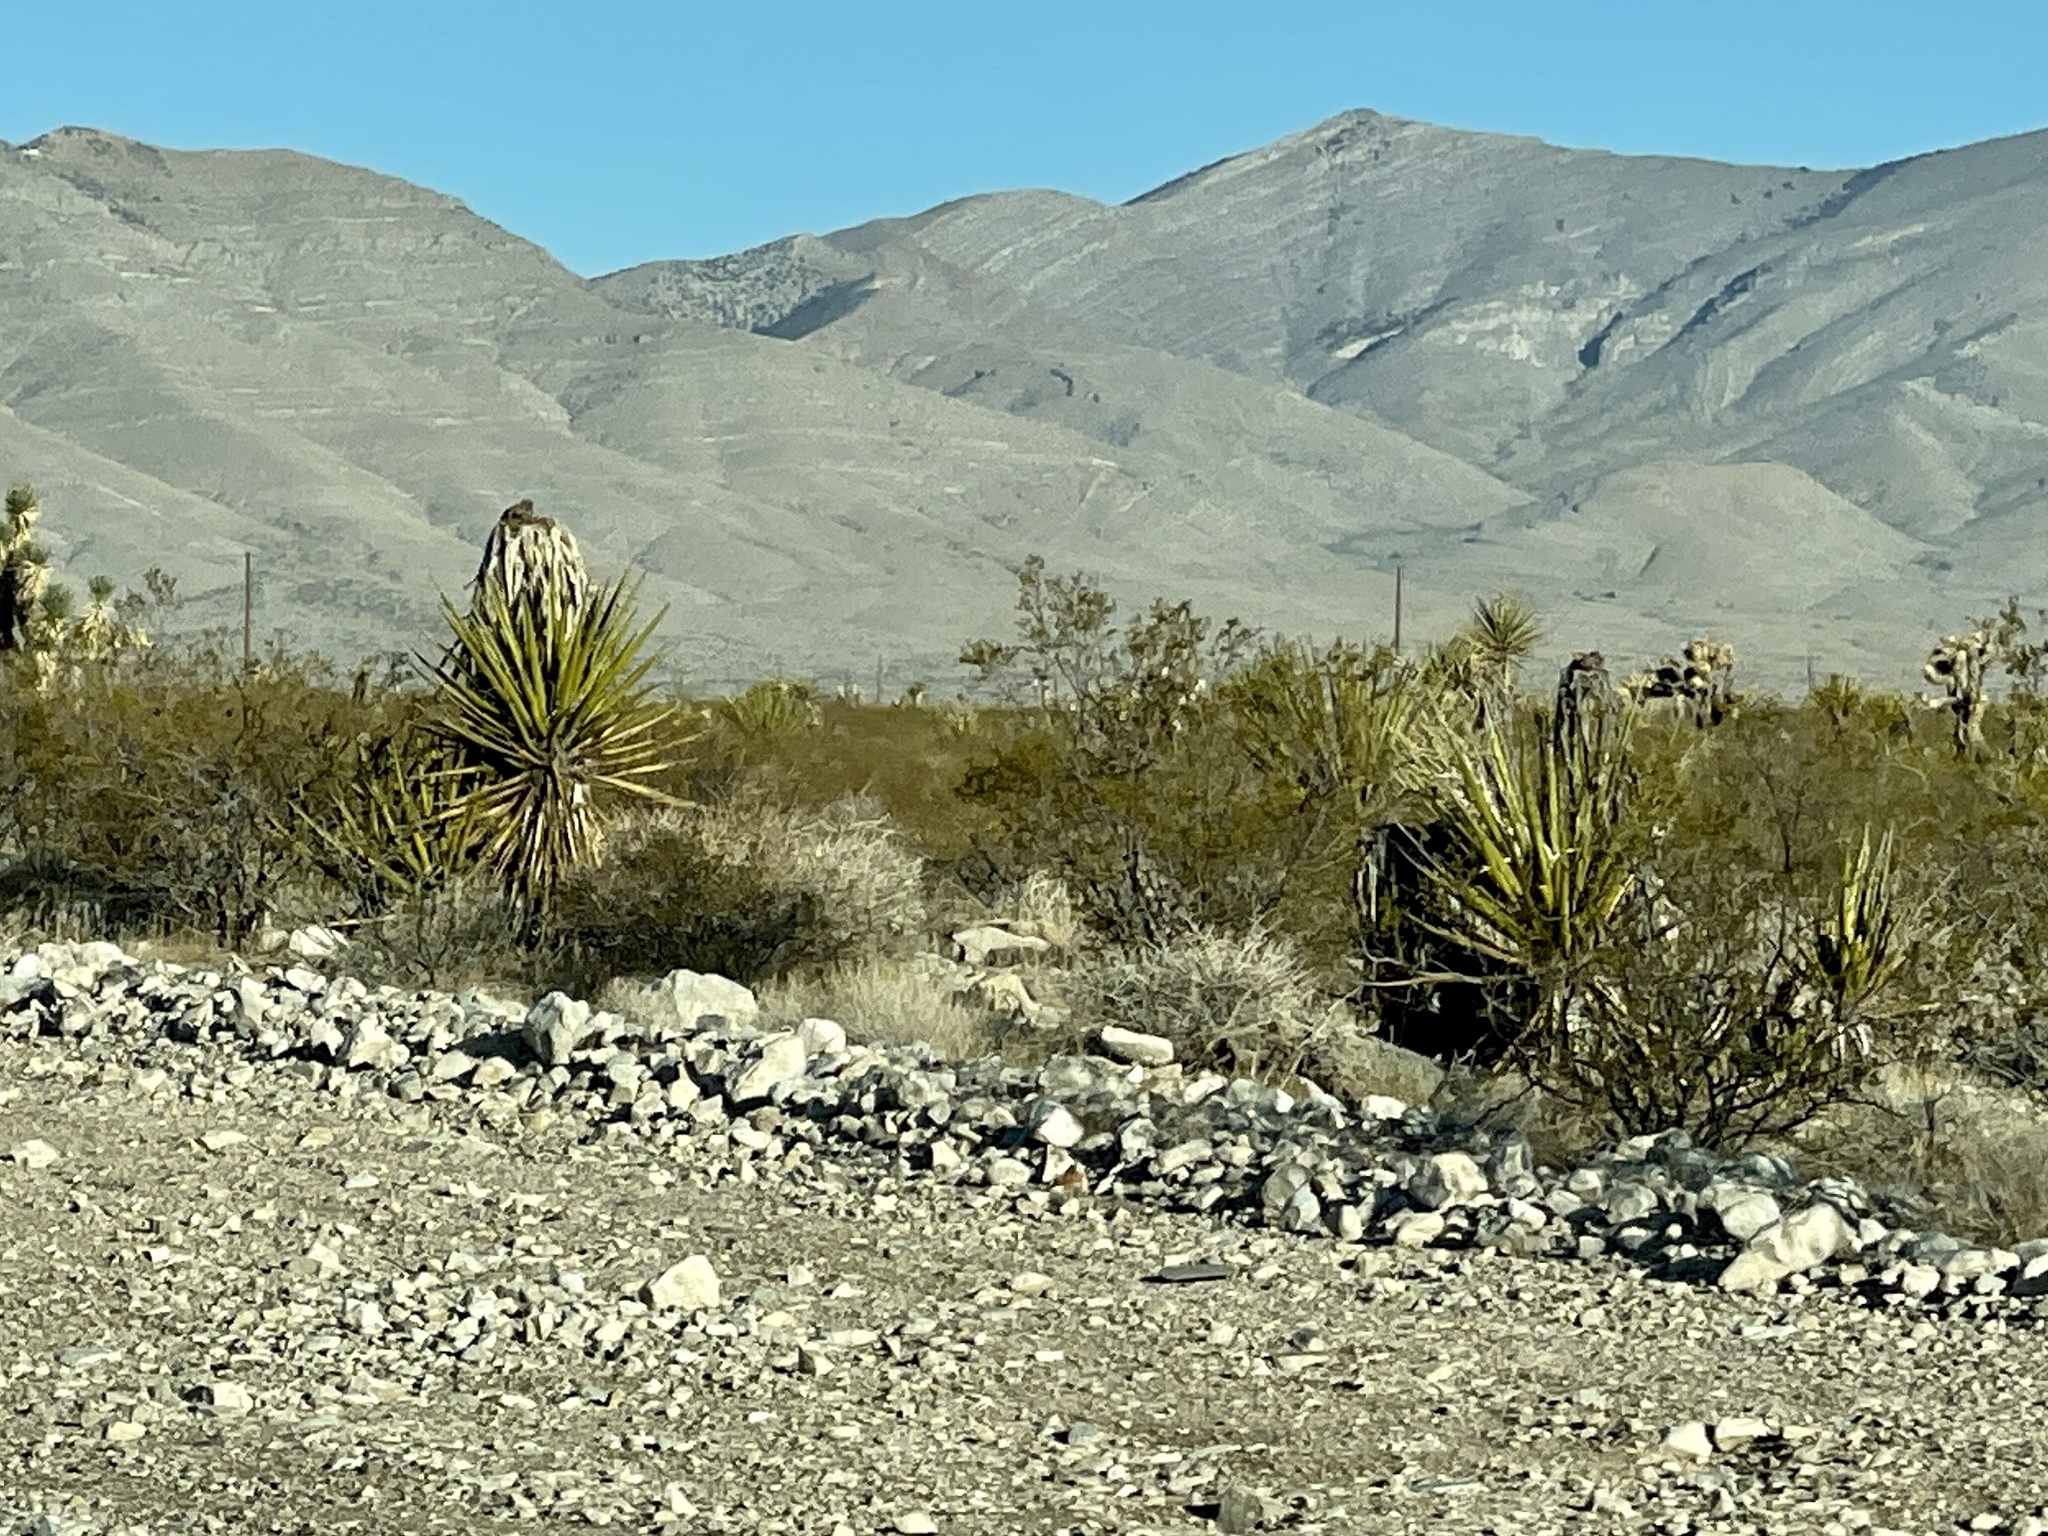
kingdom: Plantae
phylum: Tracheophyta
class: Liliopsida
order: Asparagales
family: Asparagaceae
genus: Yucca
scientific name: Yucca schidigera
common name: Mojave yucca
